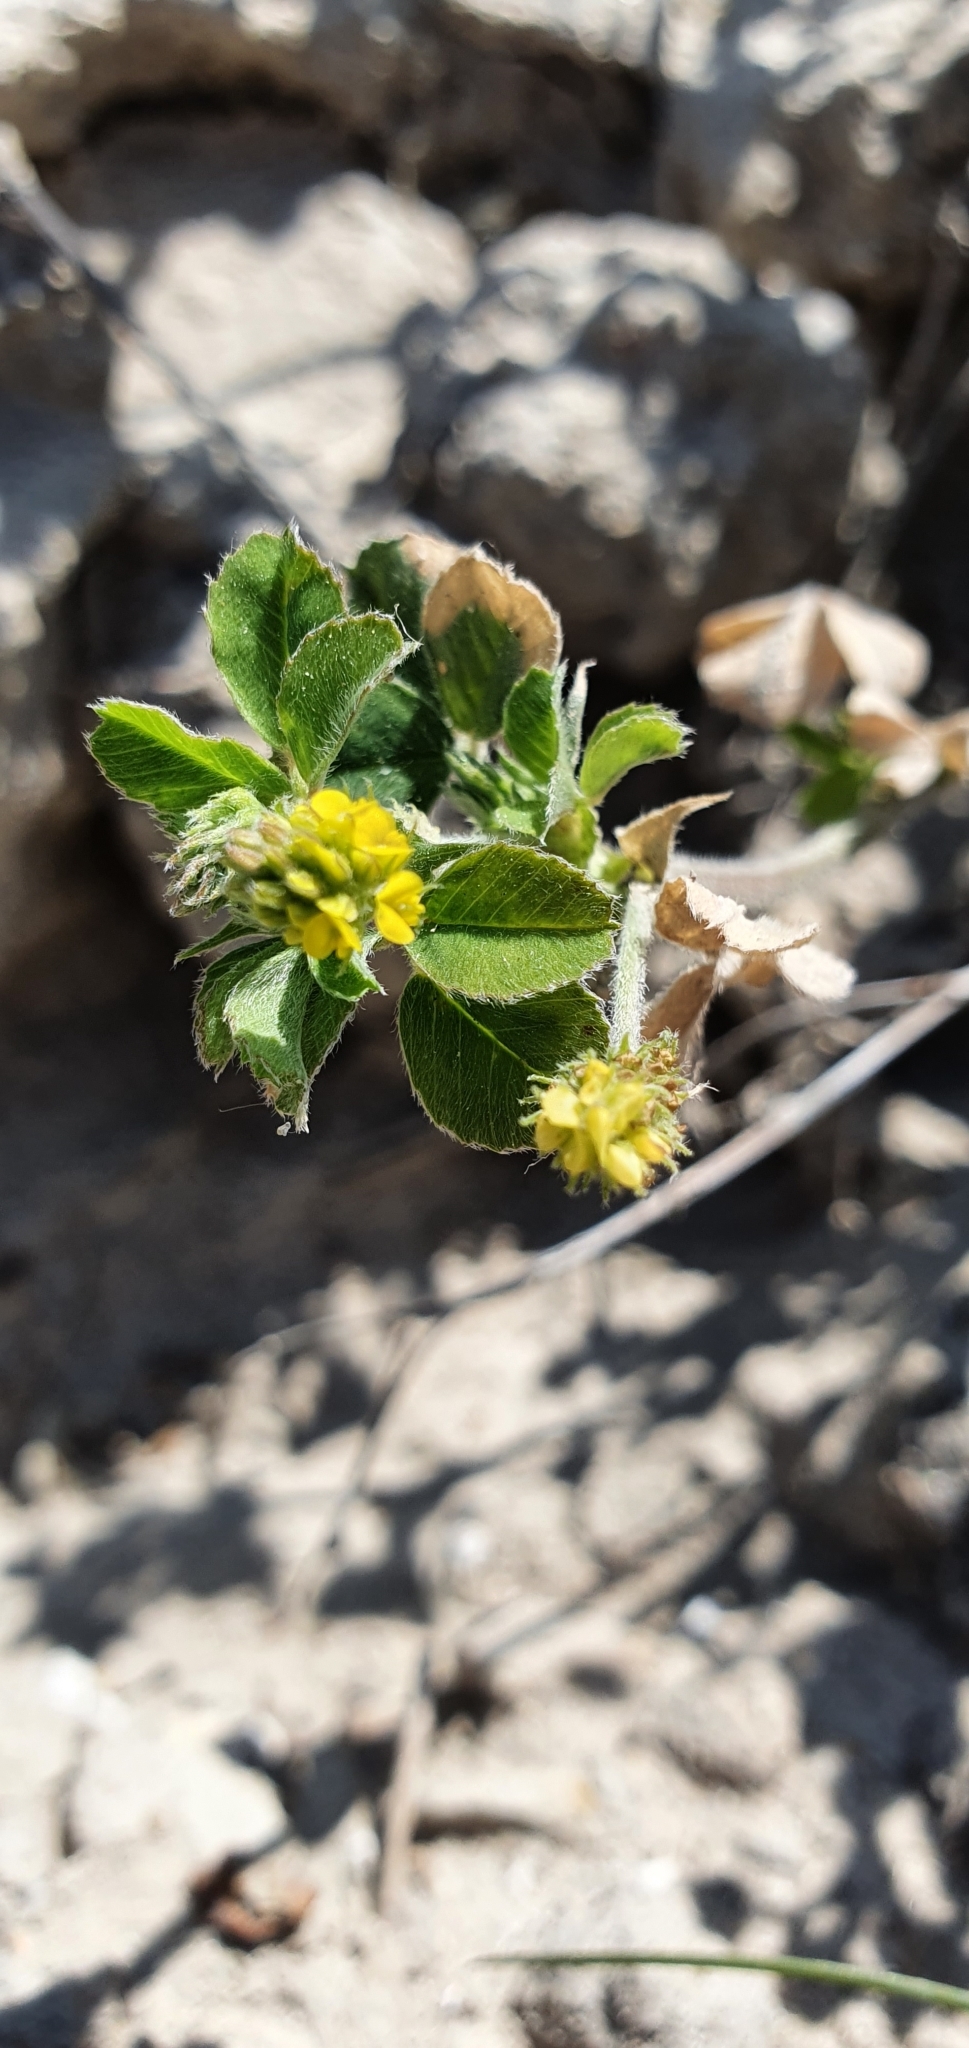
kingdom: Plantae
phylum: Tracheophyta
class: Magnoliopsida
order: Fabales
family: Fabaceae
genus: Medicago
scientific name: Medicago lupulina
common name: Black medick
